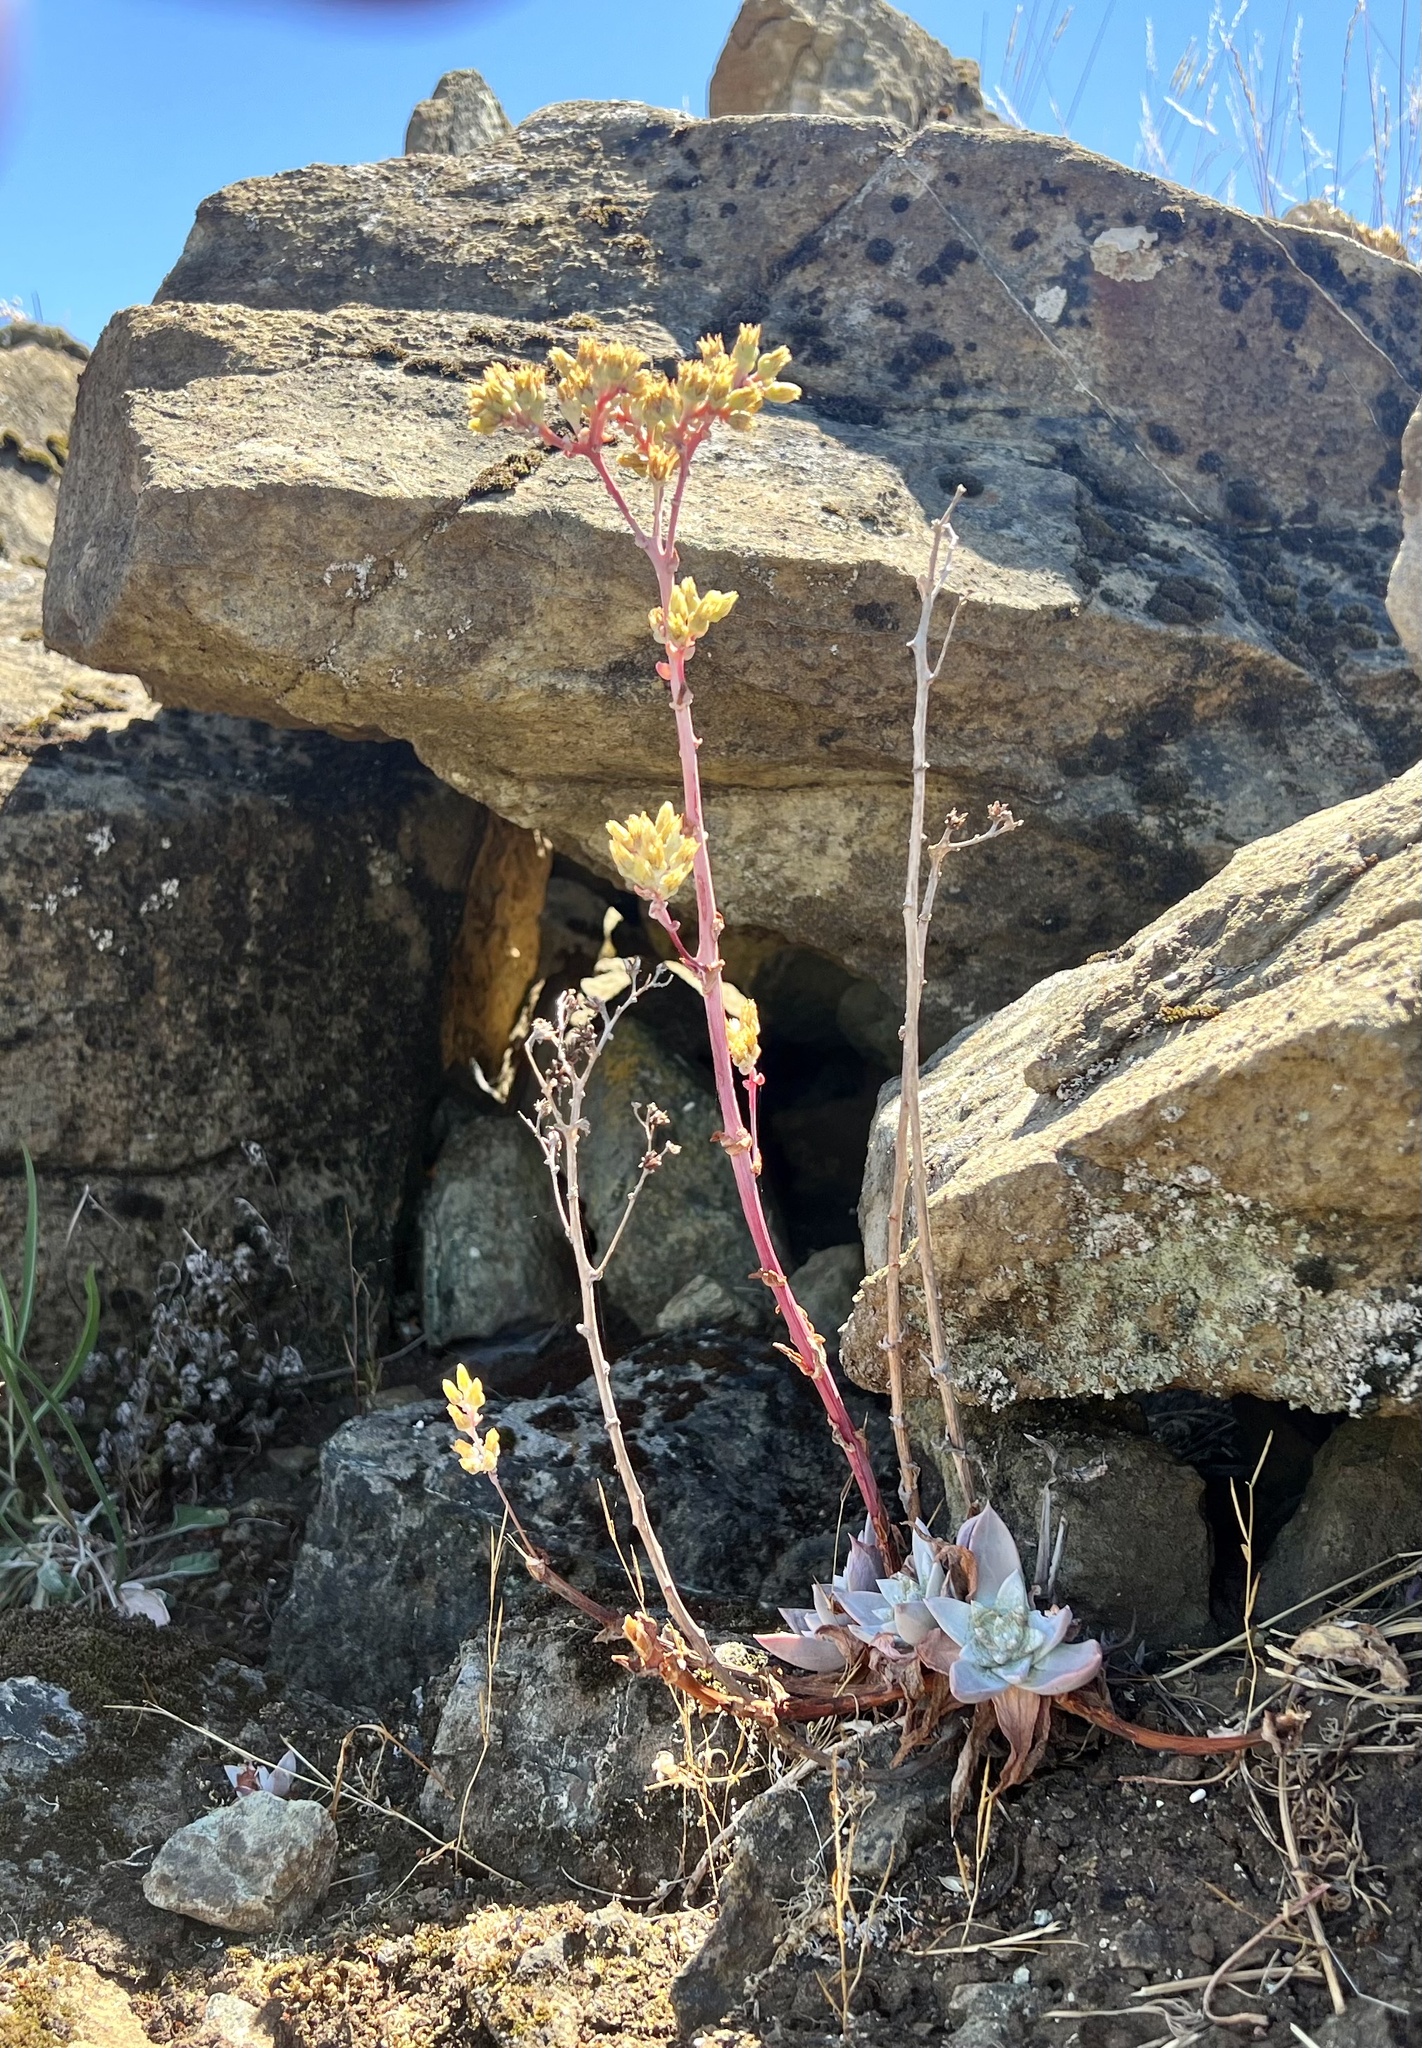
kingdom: Plantae
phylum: Tracheophyta
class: Magnoliopsida
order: Saxifragales
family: Crassulaceae
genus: Dudleya
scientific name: Dudleya farinosa
